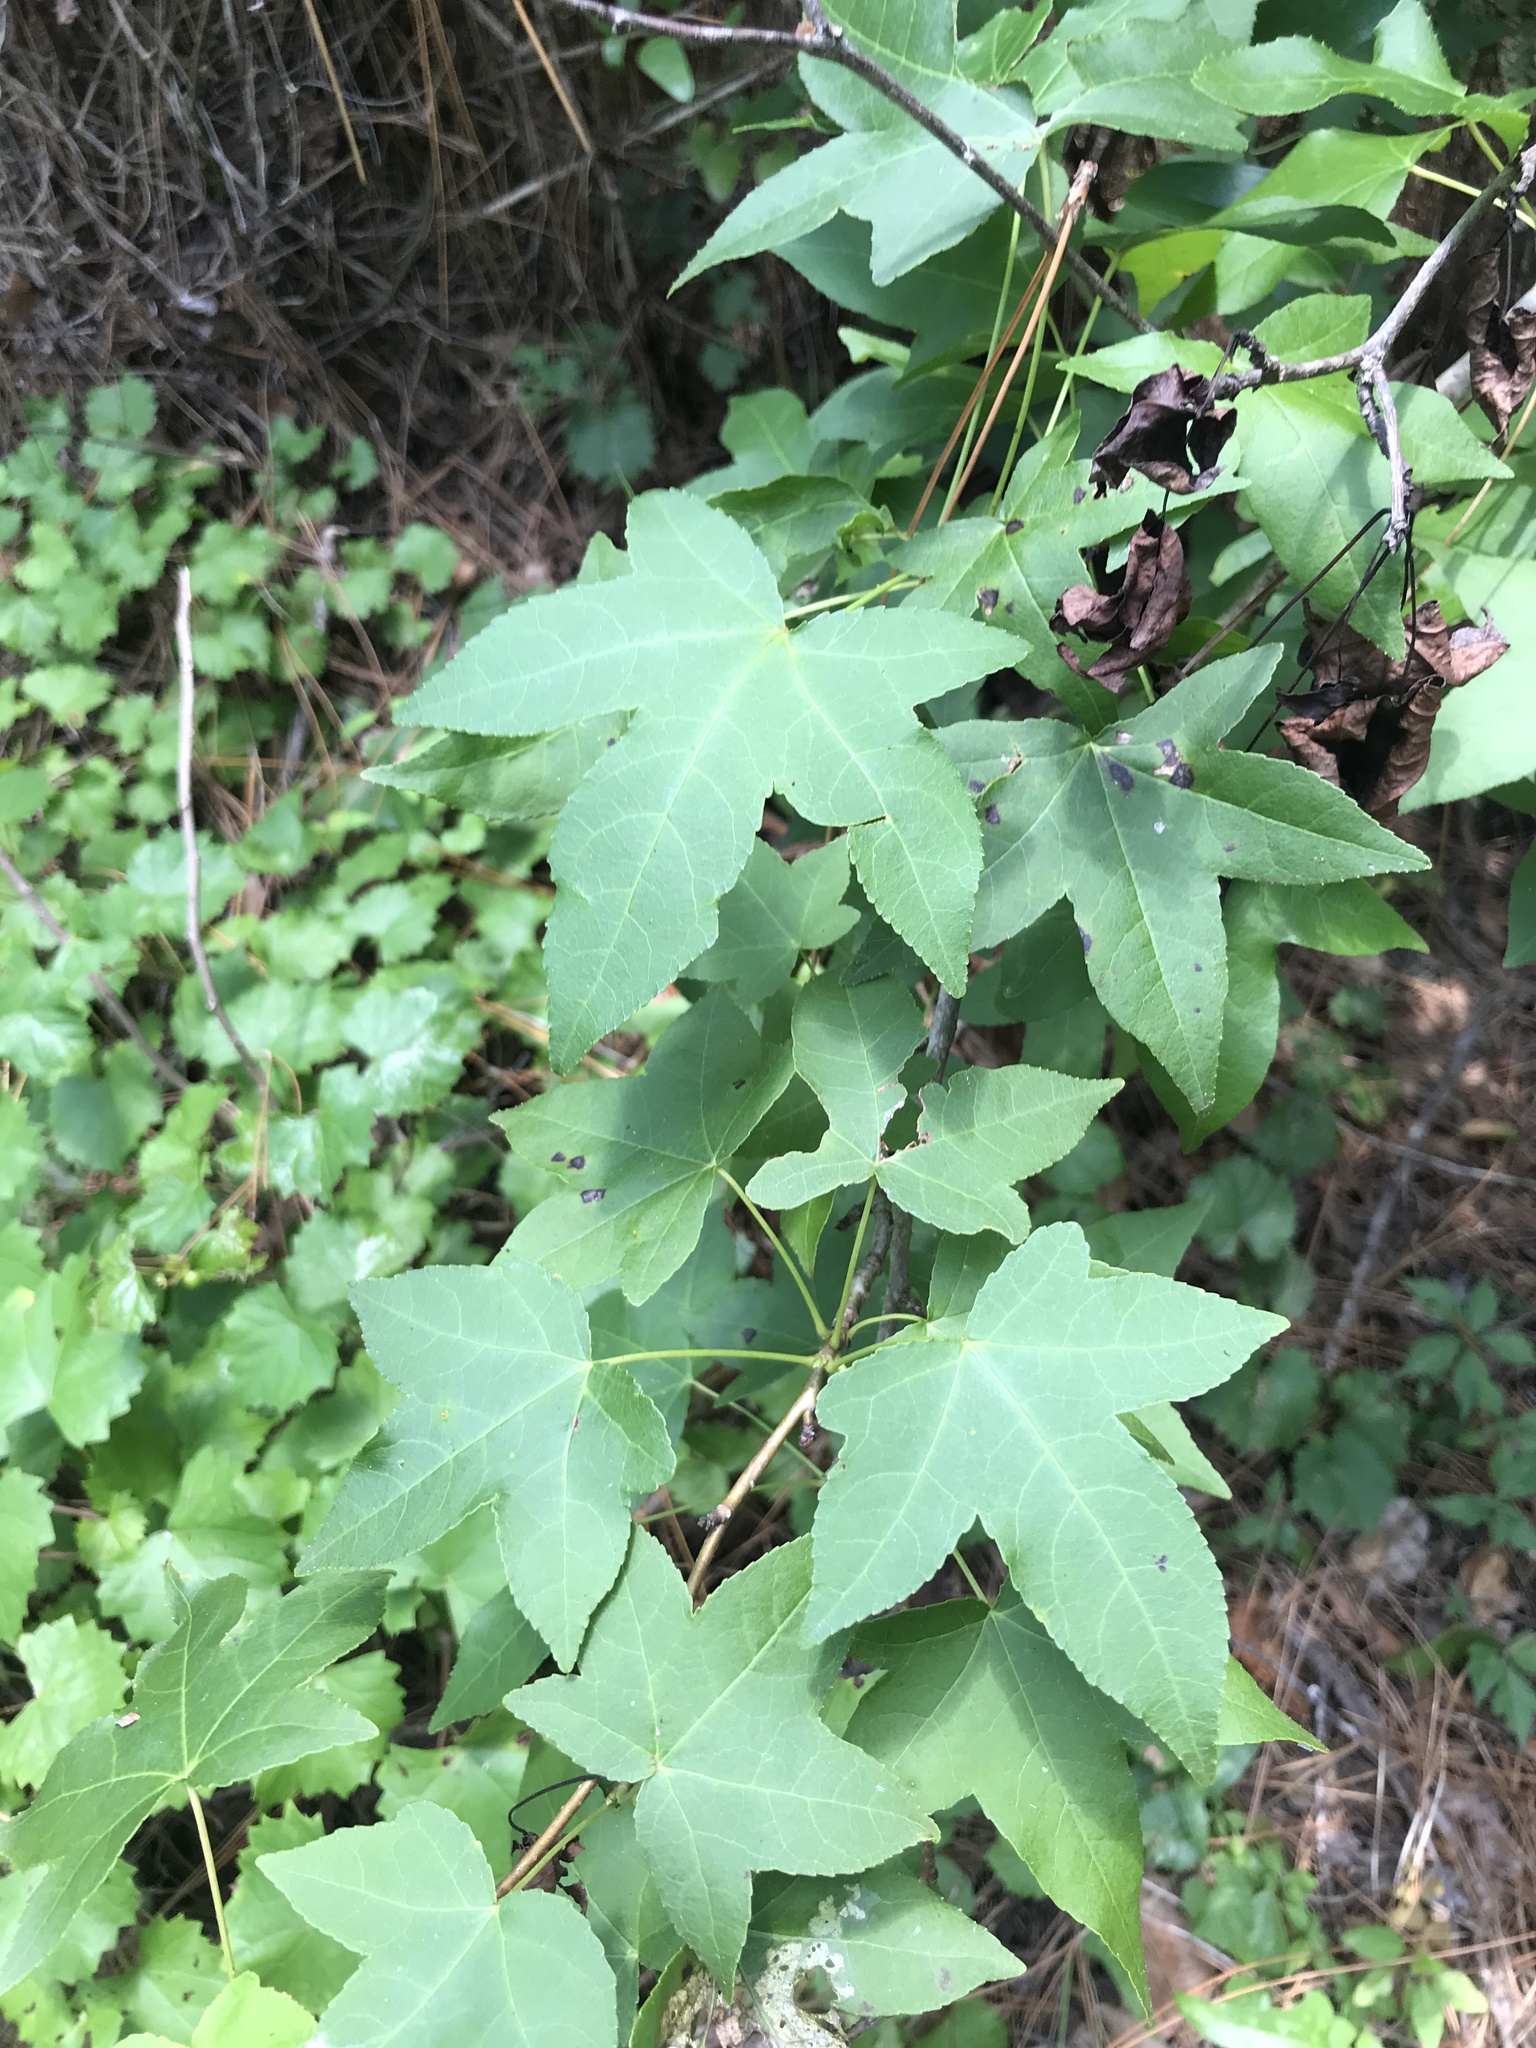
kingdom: Plantae
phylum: Tracheophyta
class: Magnoliopsida
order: Saxifragales
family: Altingiaceae
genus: Liquidambar
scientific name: Liquidambar styraciflua
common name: Sweet gum
